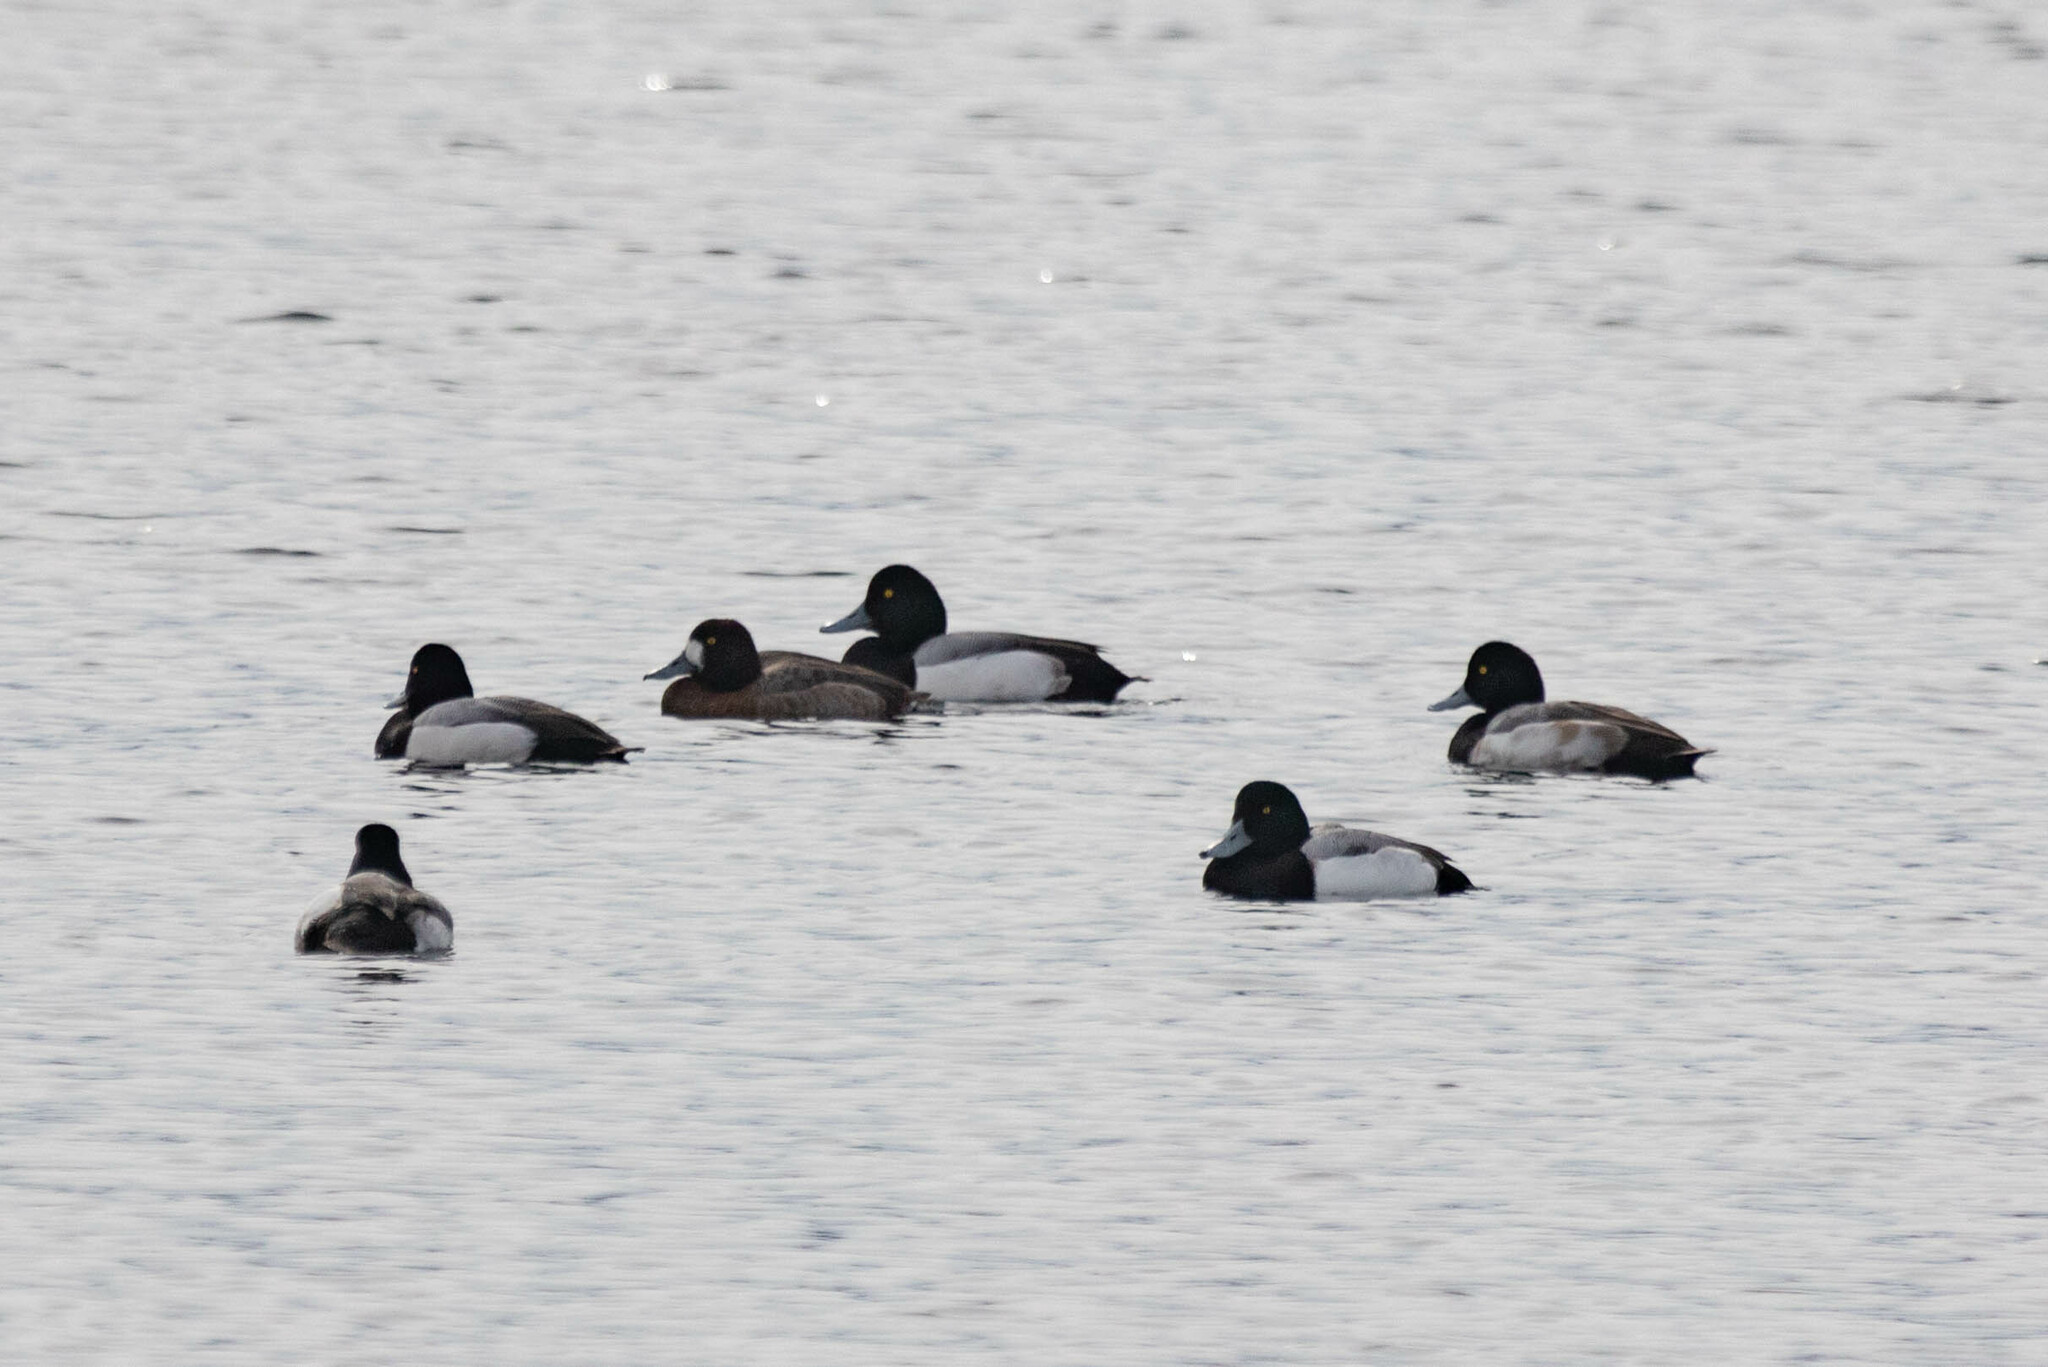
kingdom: Animalia
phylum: Chordata
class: Aves
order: Anseriformes
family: Anatidae
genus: Aythya
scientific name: Aythya marila
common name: Greater scaup
